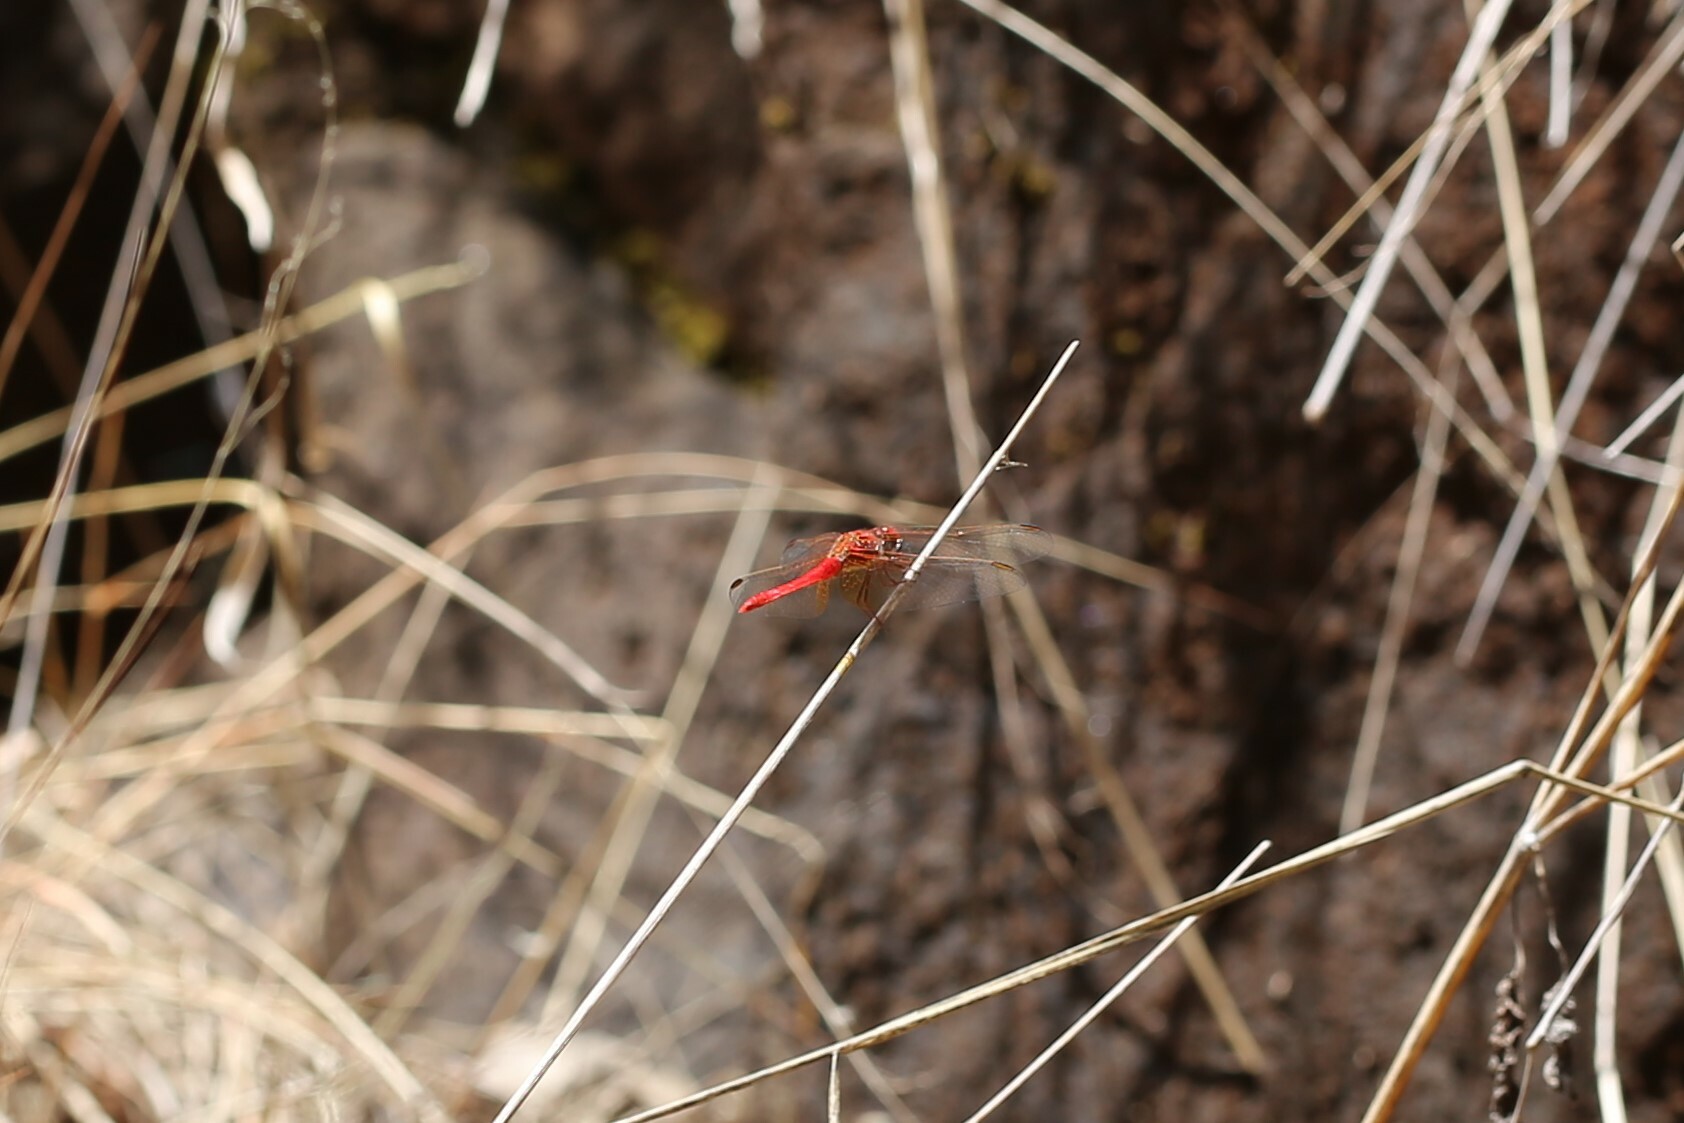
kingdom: Animalia
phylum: Arthropoda
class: Insecta
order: Odonata
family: Libellulidae
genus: Diplacodes
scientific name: Diplacodes haematodes
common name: Scarlet percher
